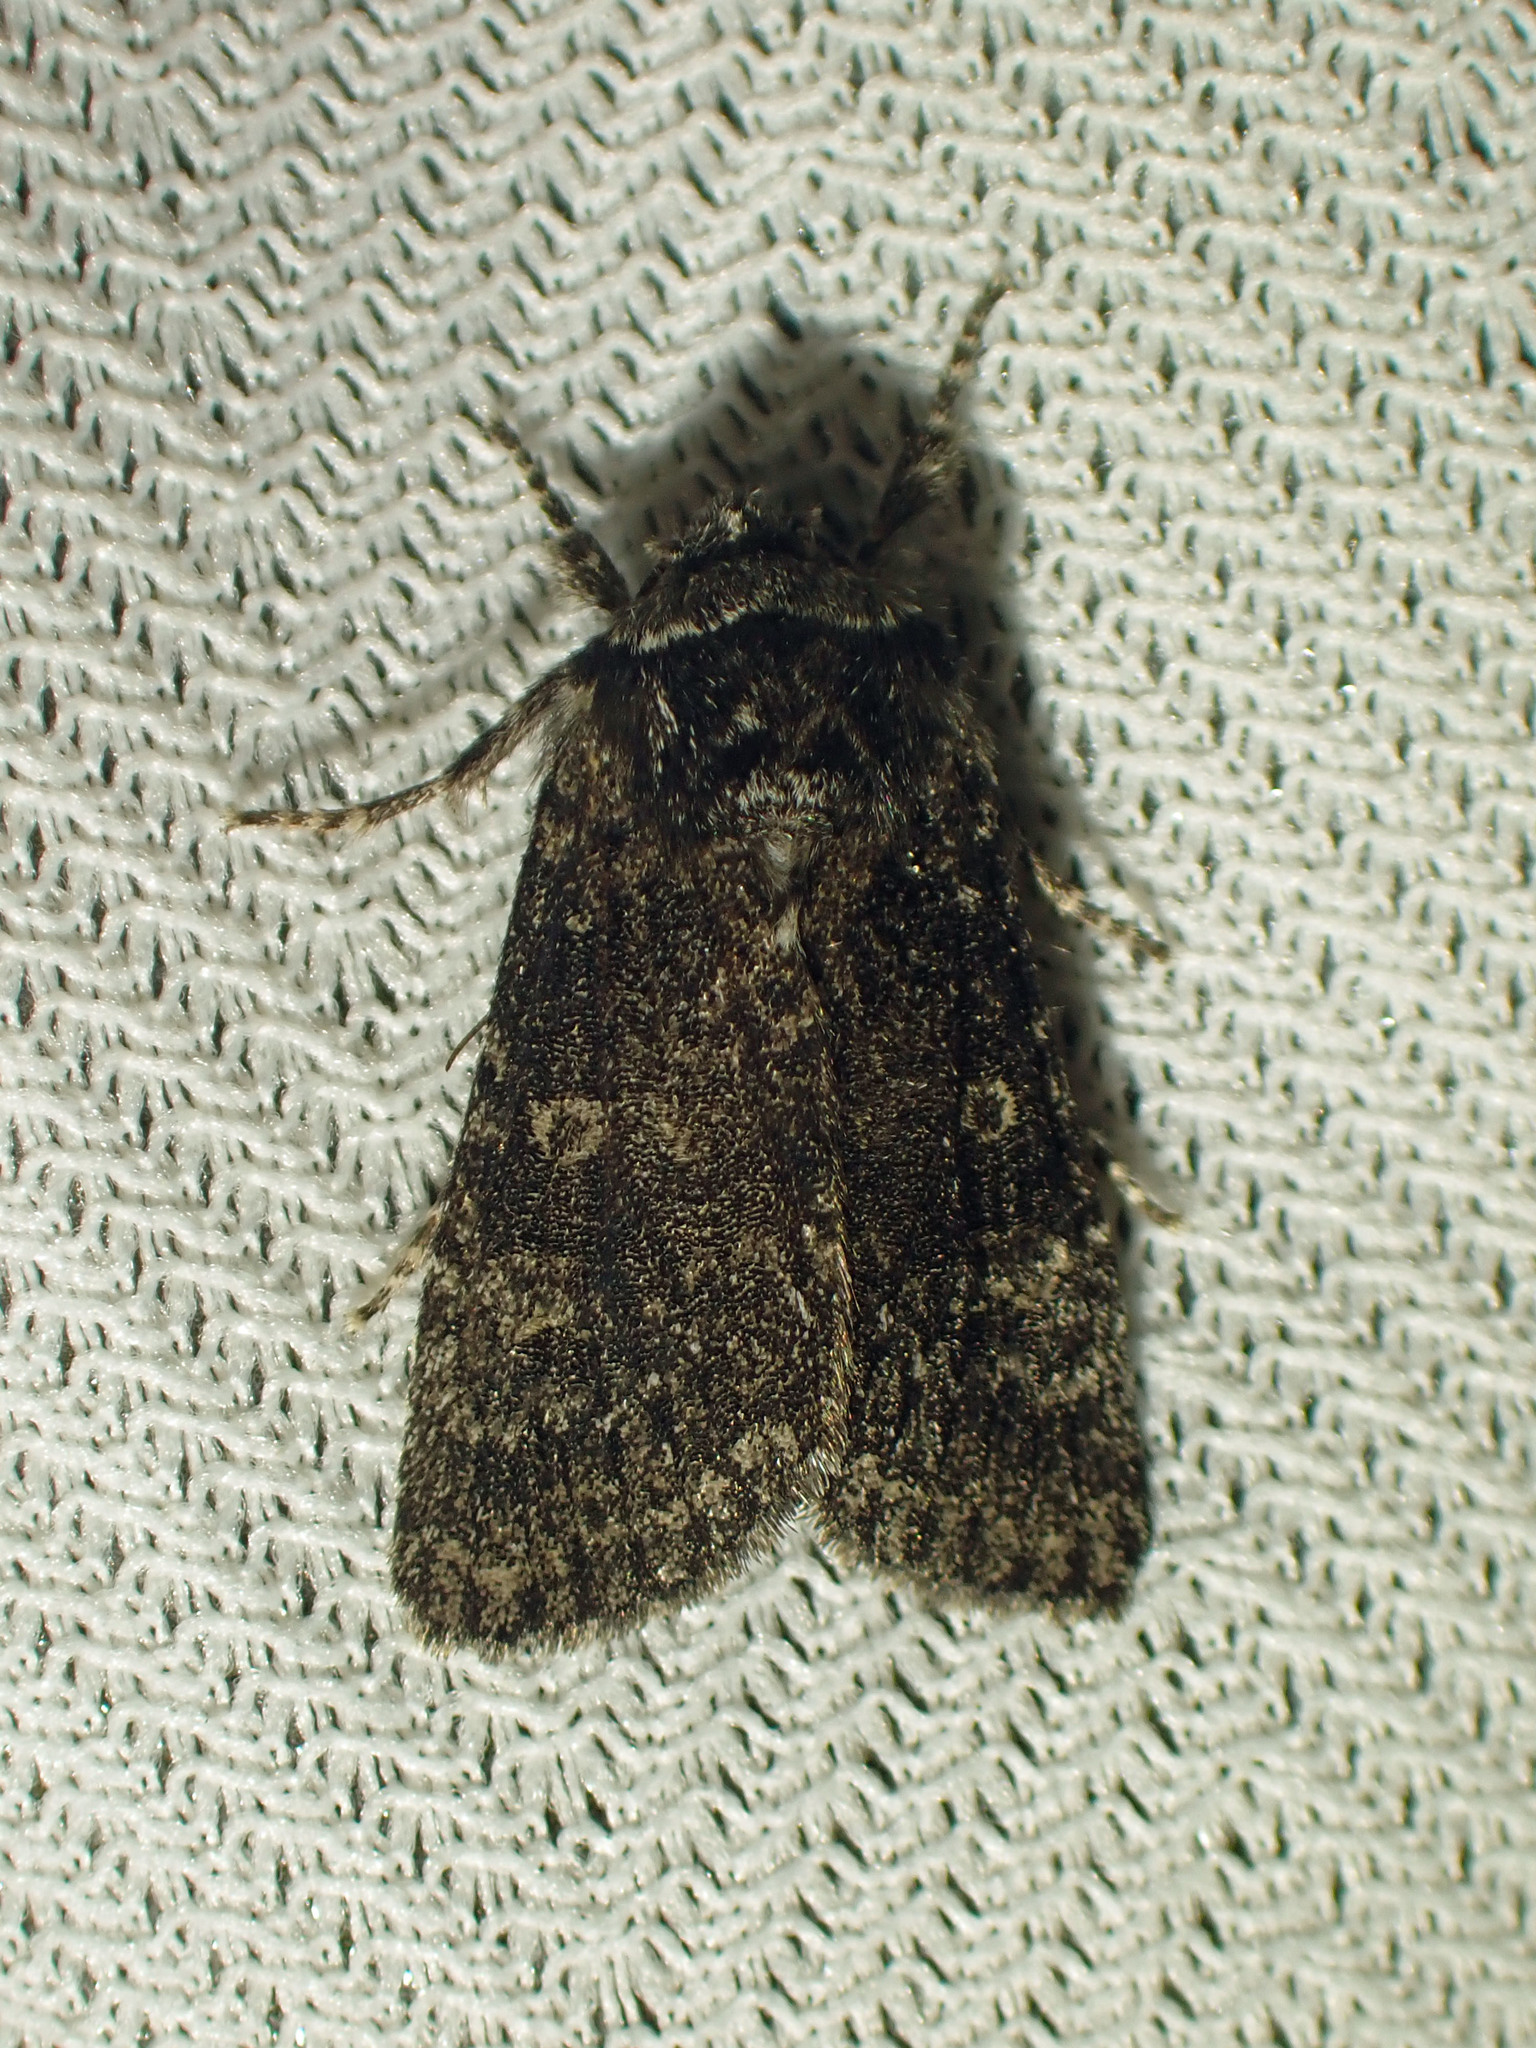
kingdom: Animalia
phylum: Arthropoda
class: Insecta
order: Lepidoptera
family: Noctuidae
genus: Egira
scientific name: Egira dolosa
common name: Lined black aspen cat.
